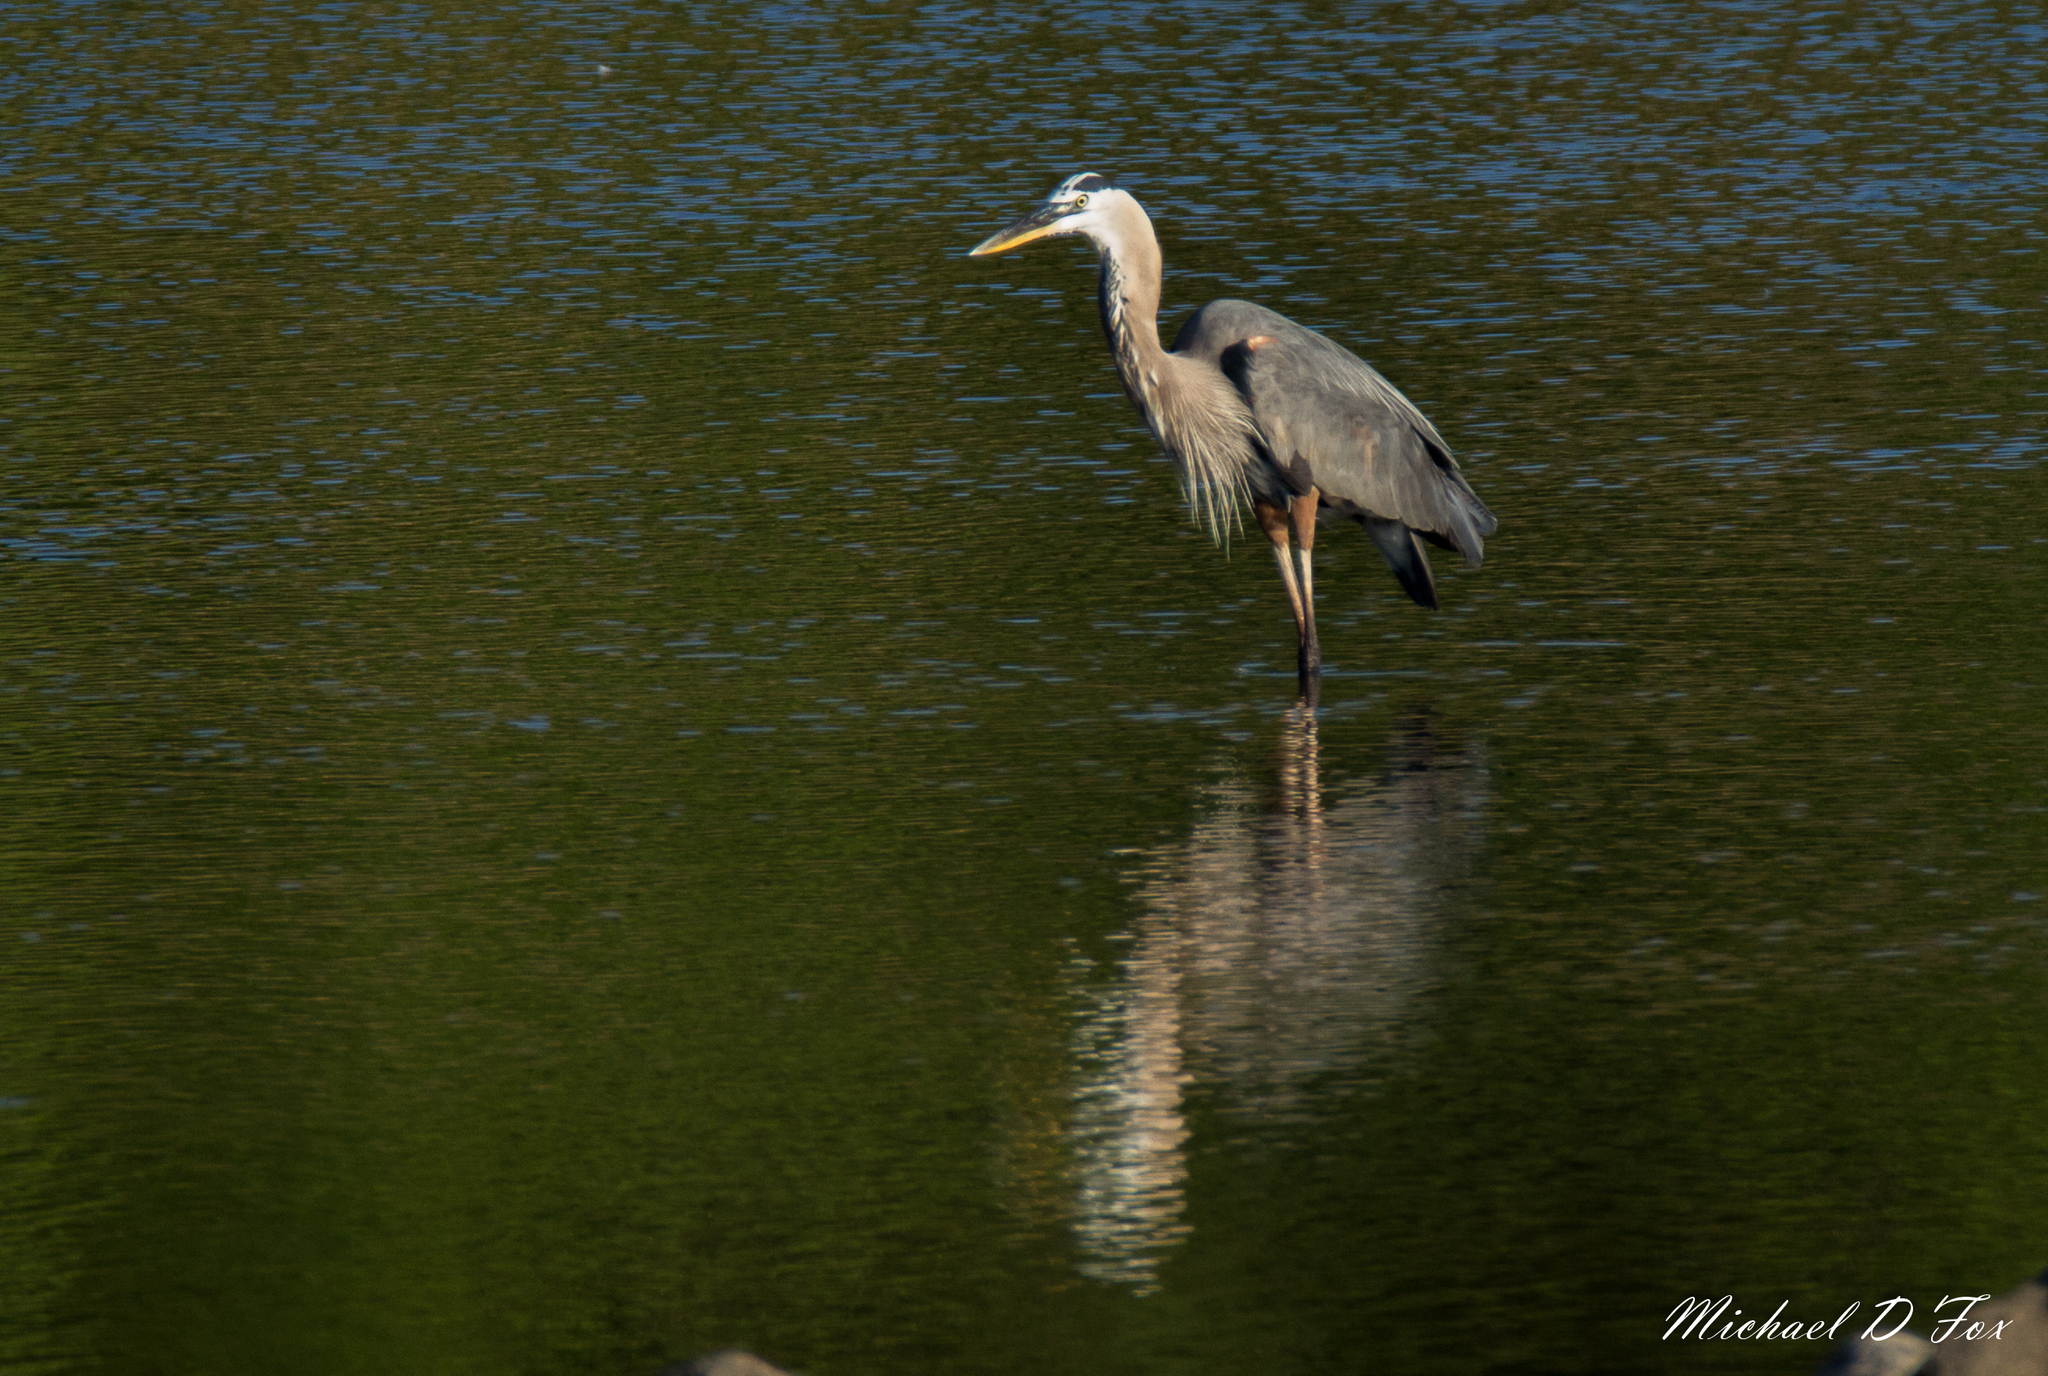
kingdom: Animalia
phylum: Chordata
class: Aves
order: Pelecaniformes
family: Ardeidae
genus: Ardea
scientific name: Ardea herodias
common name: Great blue heron
